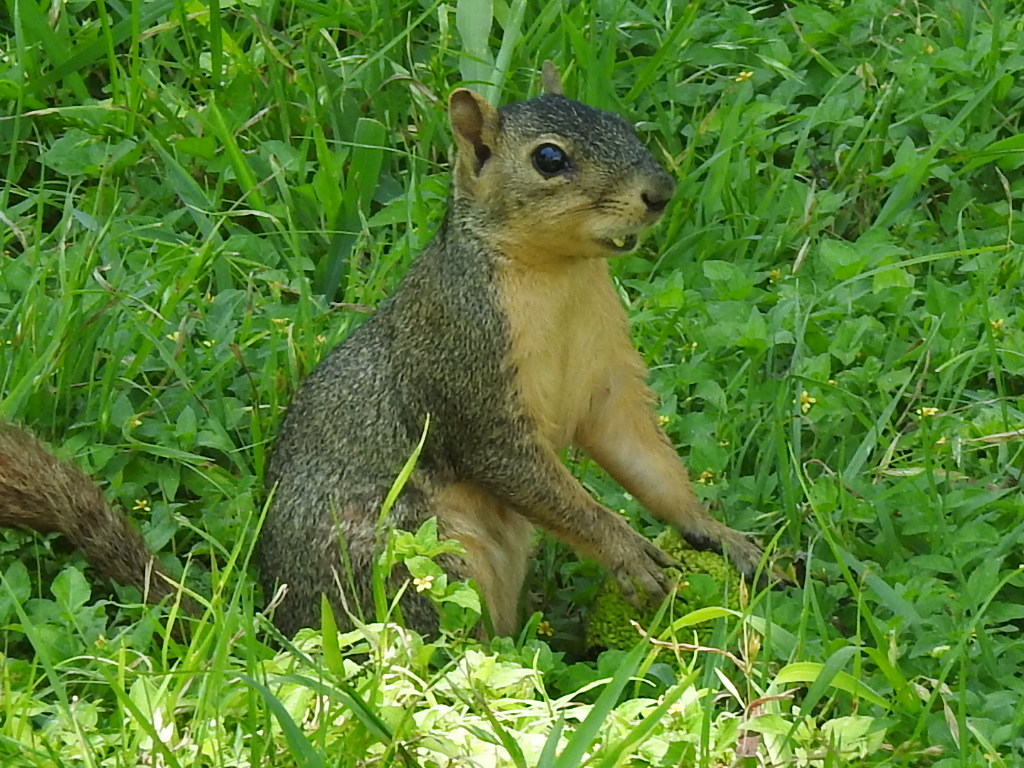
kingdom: Animalia
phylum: Chordata
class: Mammalia
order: Rodentia
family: Sciuridae
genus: Sciurus
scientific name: Sciurus niger
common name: Fox squirrel
